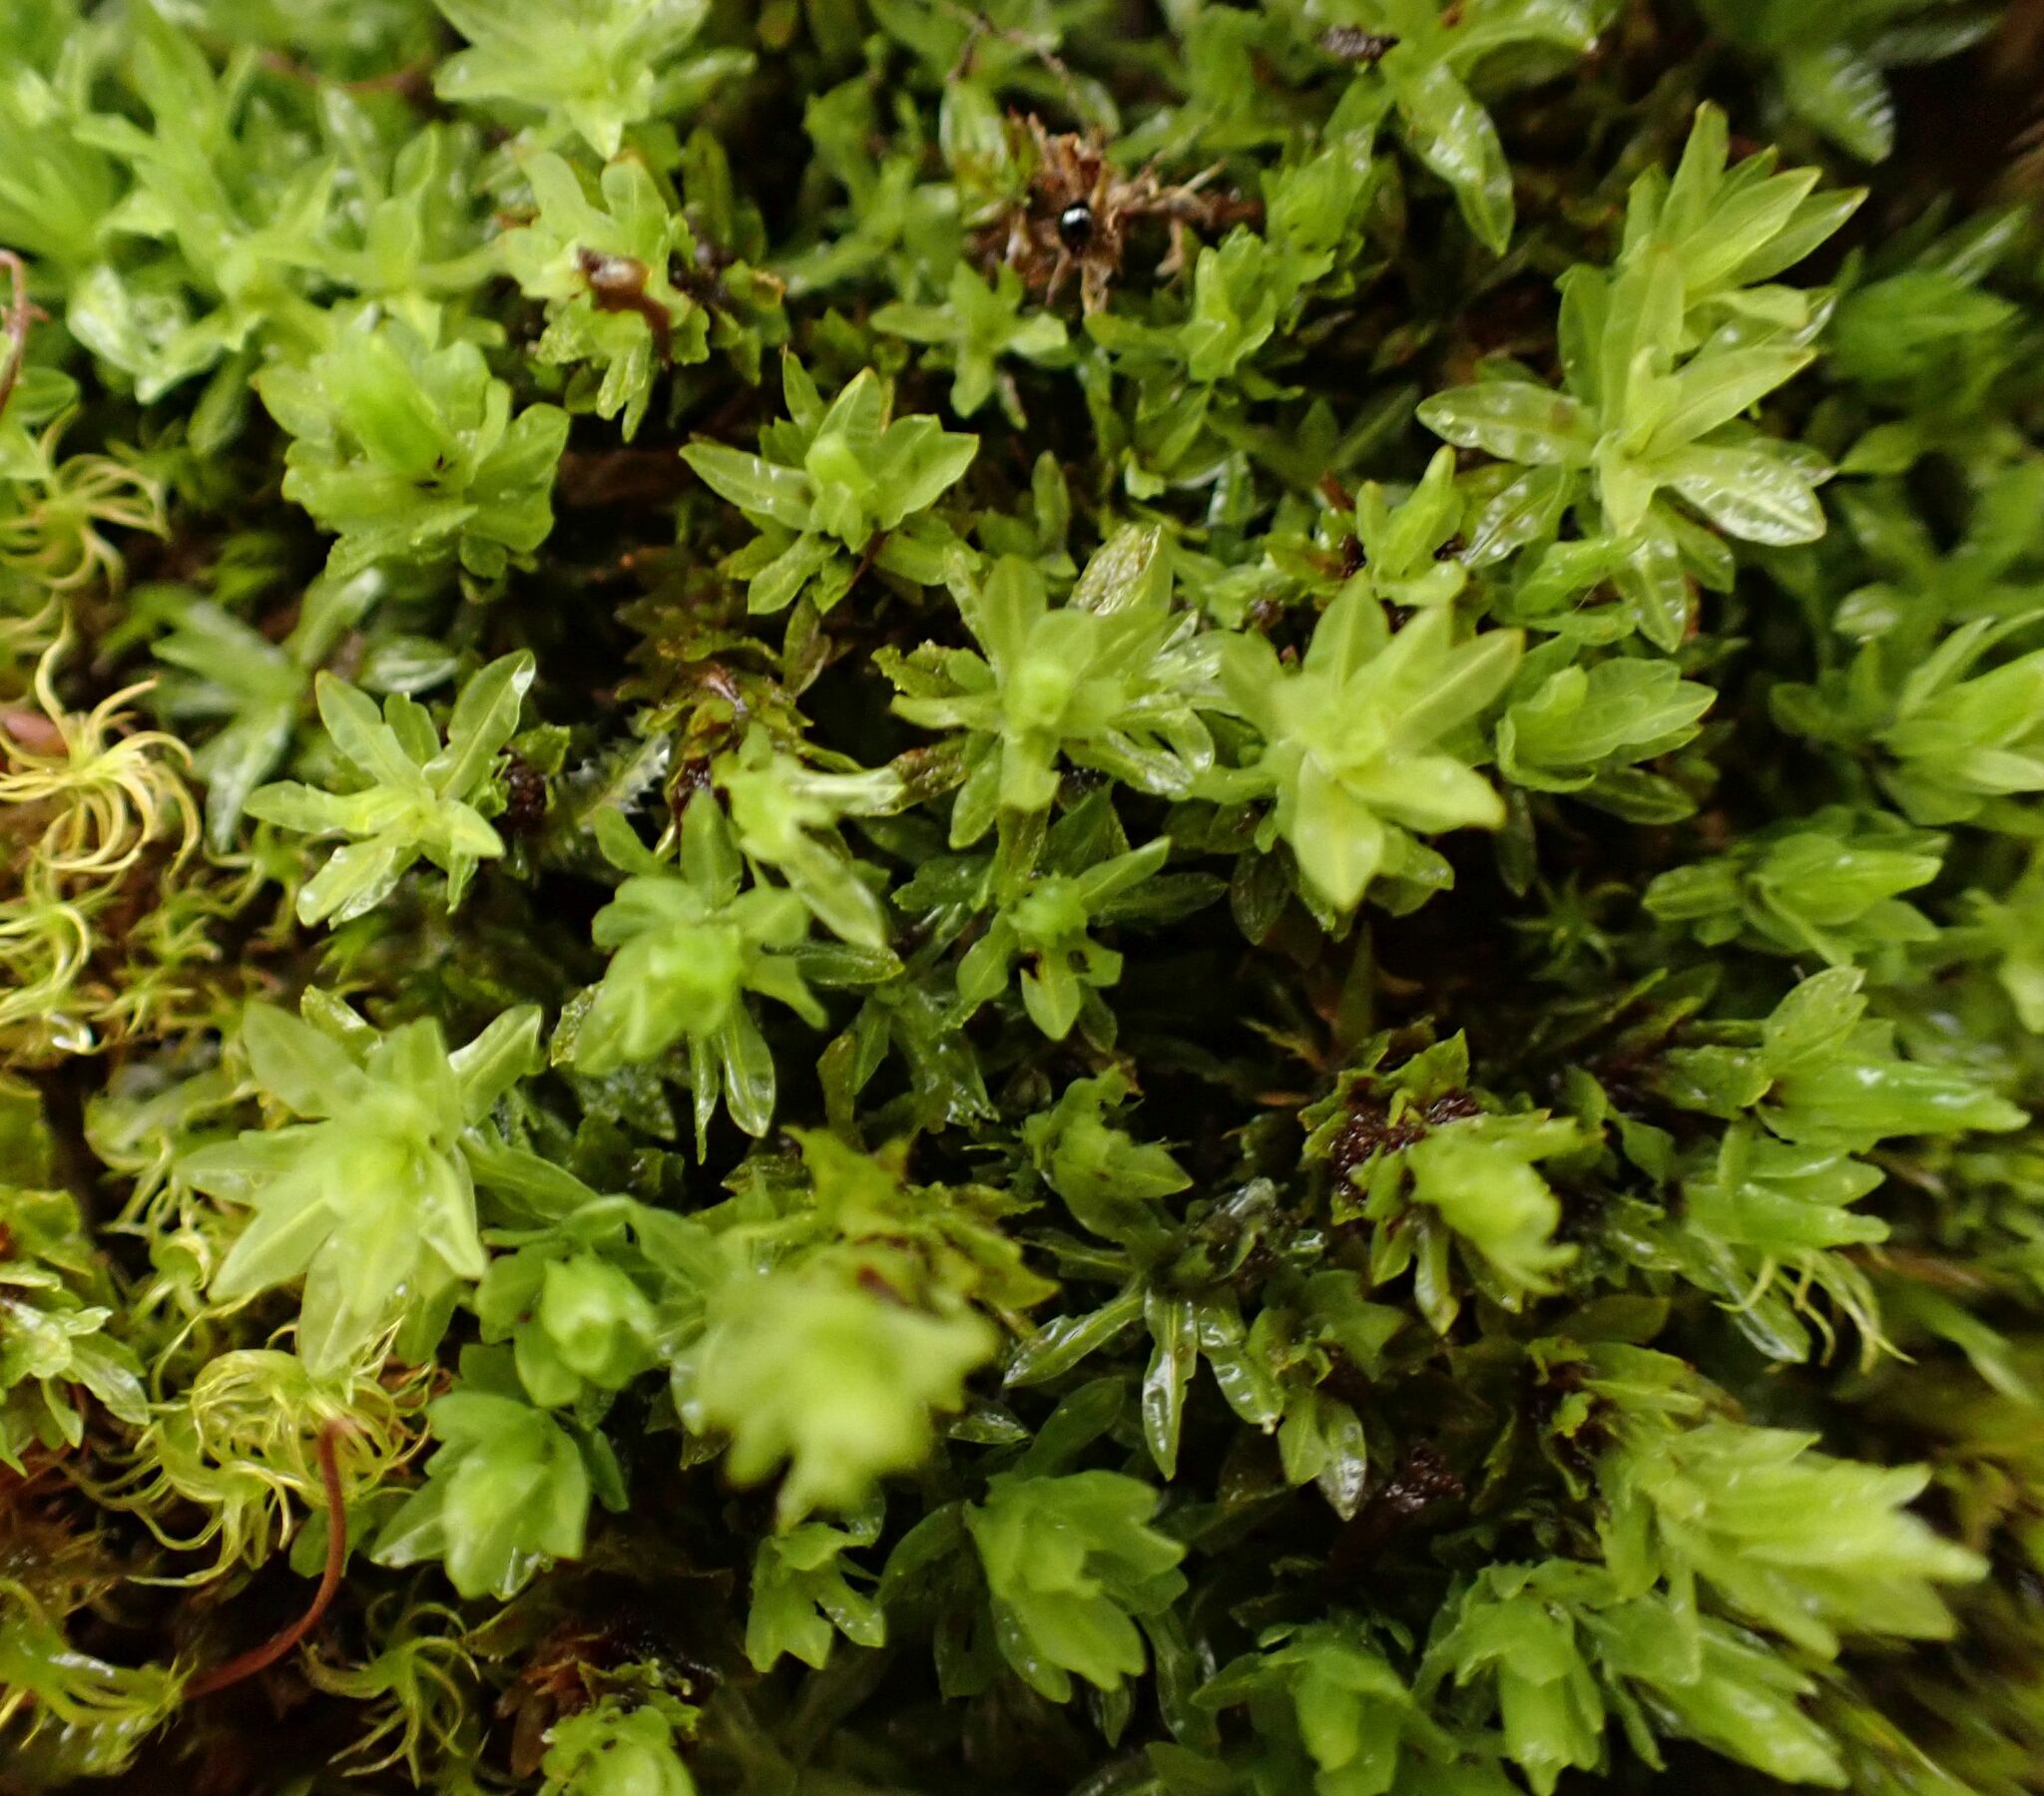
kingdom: Plantae
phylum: Bryophyta
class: Bryopsida
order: Encalyptales
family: Encalyptaceae
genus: Encalypta
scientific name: Encalypta streptocarpa
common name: Spiral extinguisher-moss
